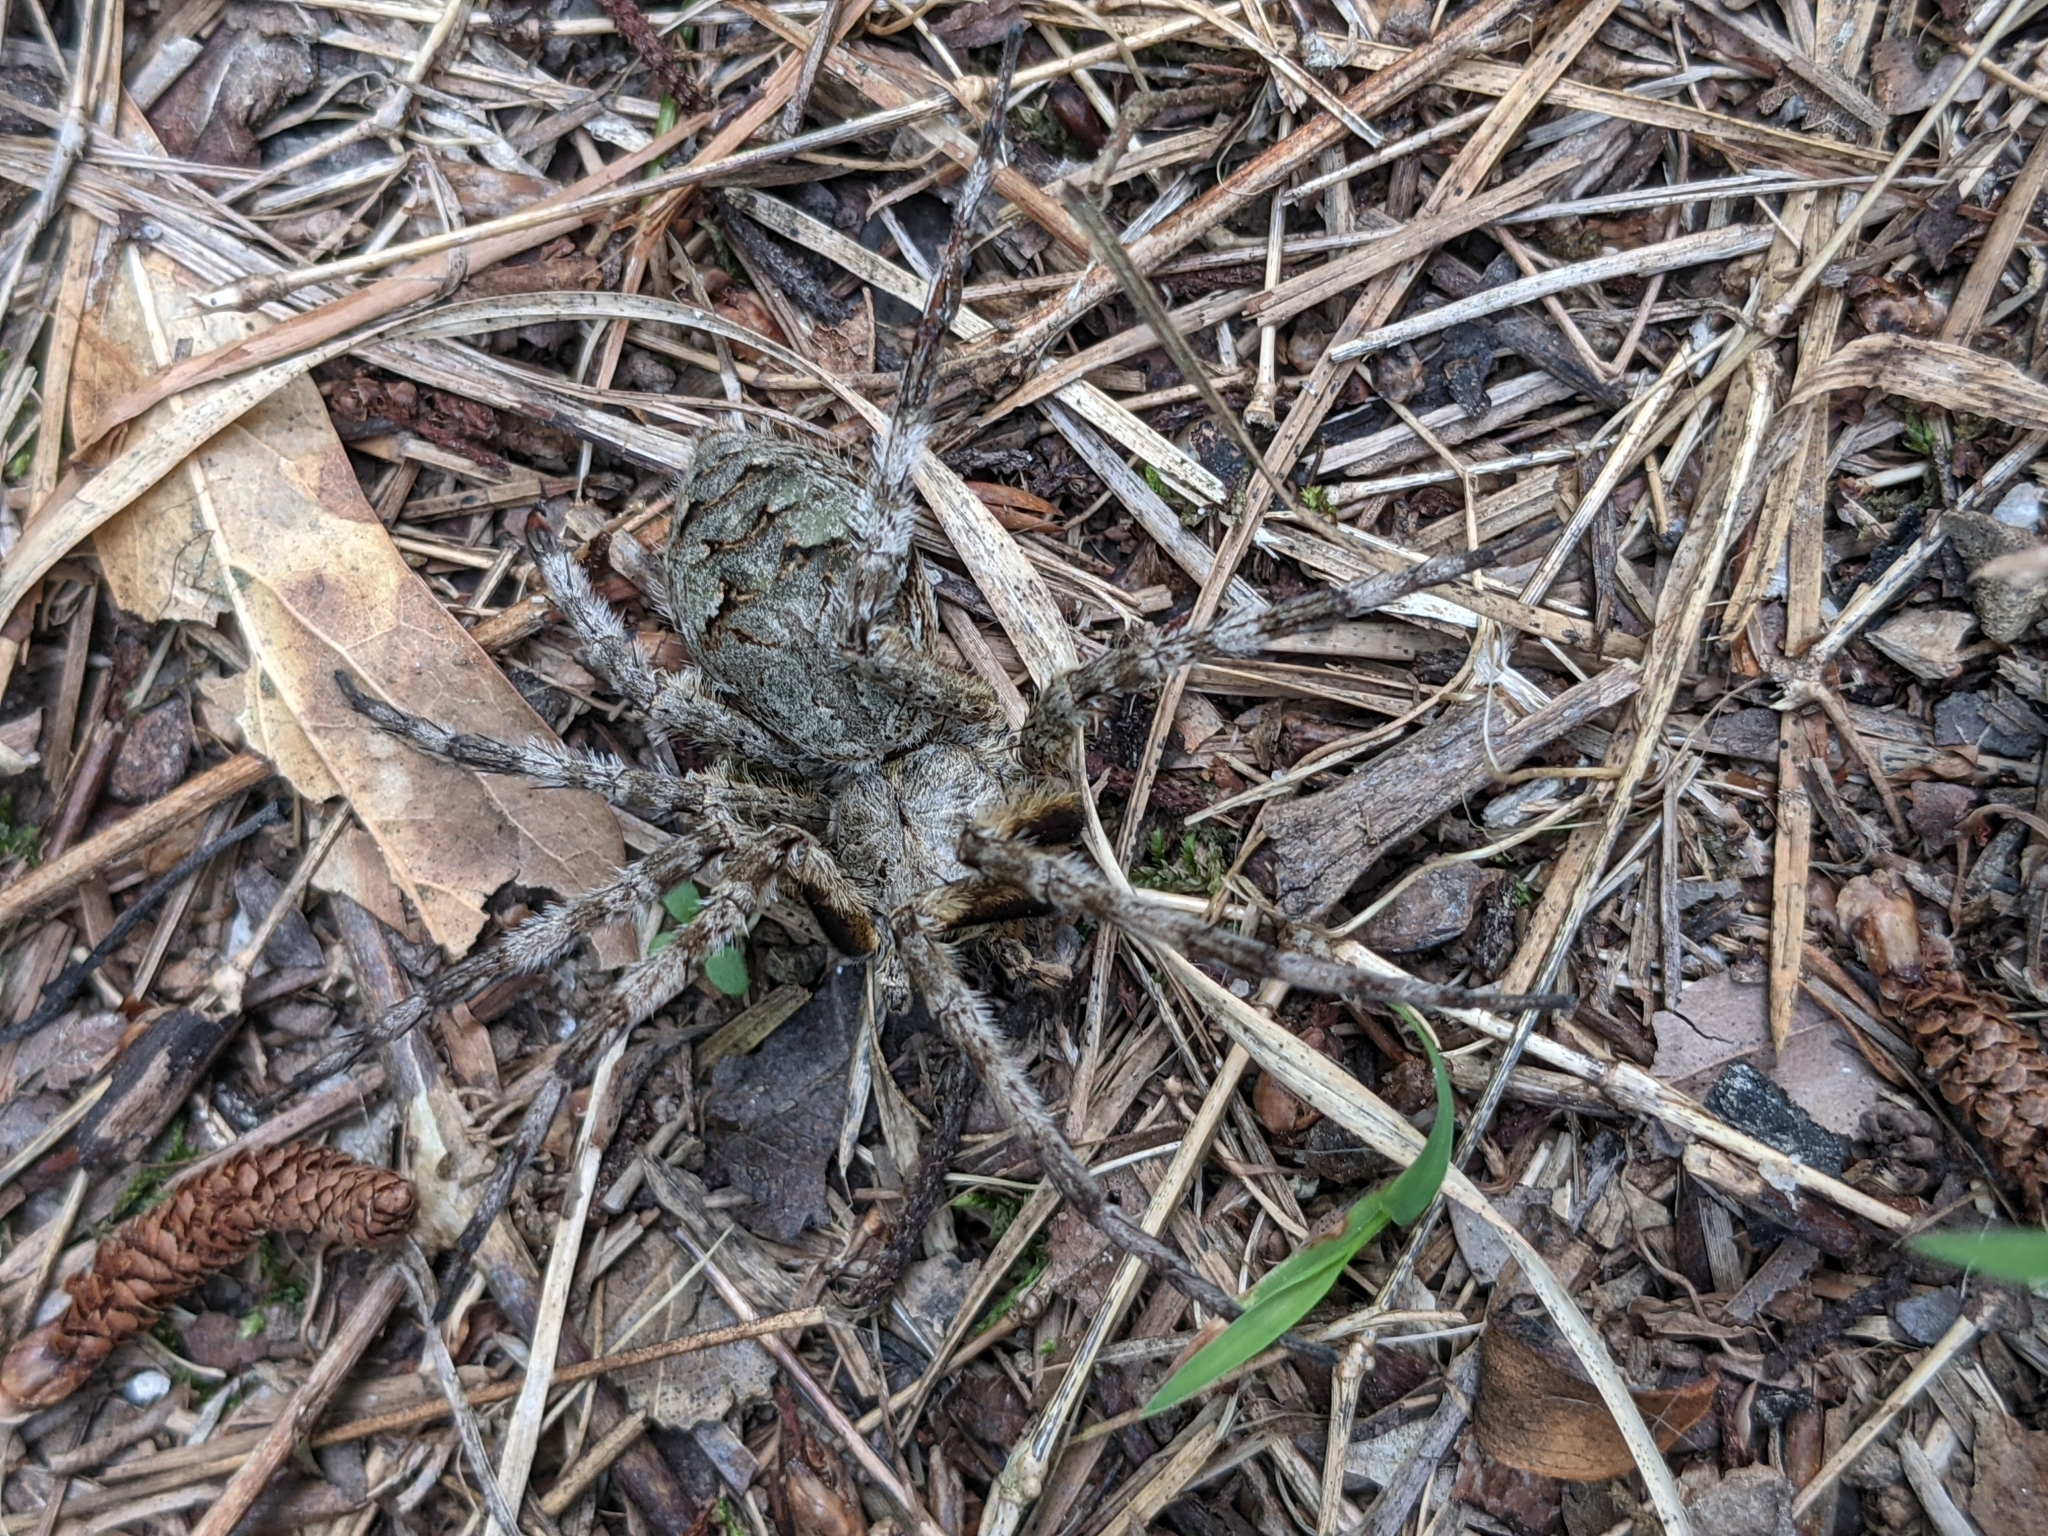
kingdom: Animalia
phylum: Arthropoda
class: Arachnida
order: Araneae
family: Pisauridae
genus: Dolomedes
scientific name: Dolomedes albineus
